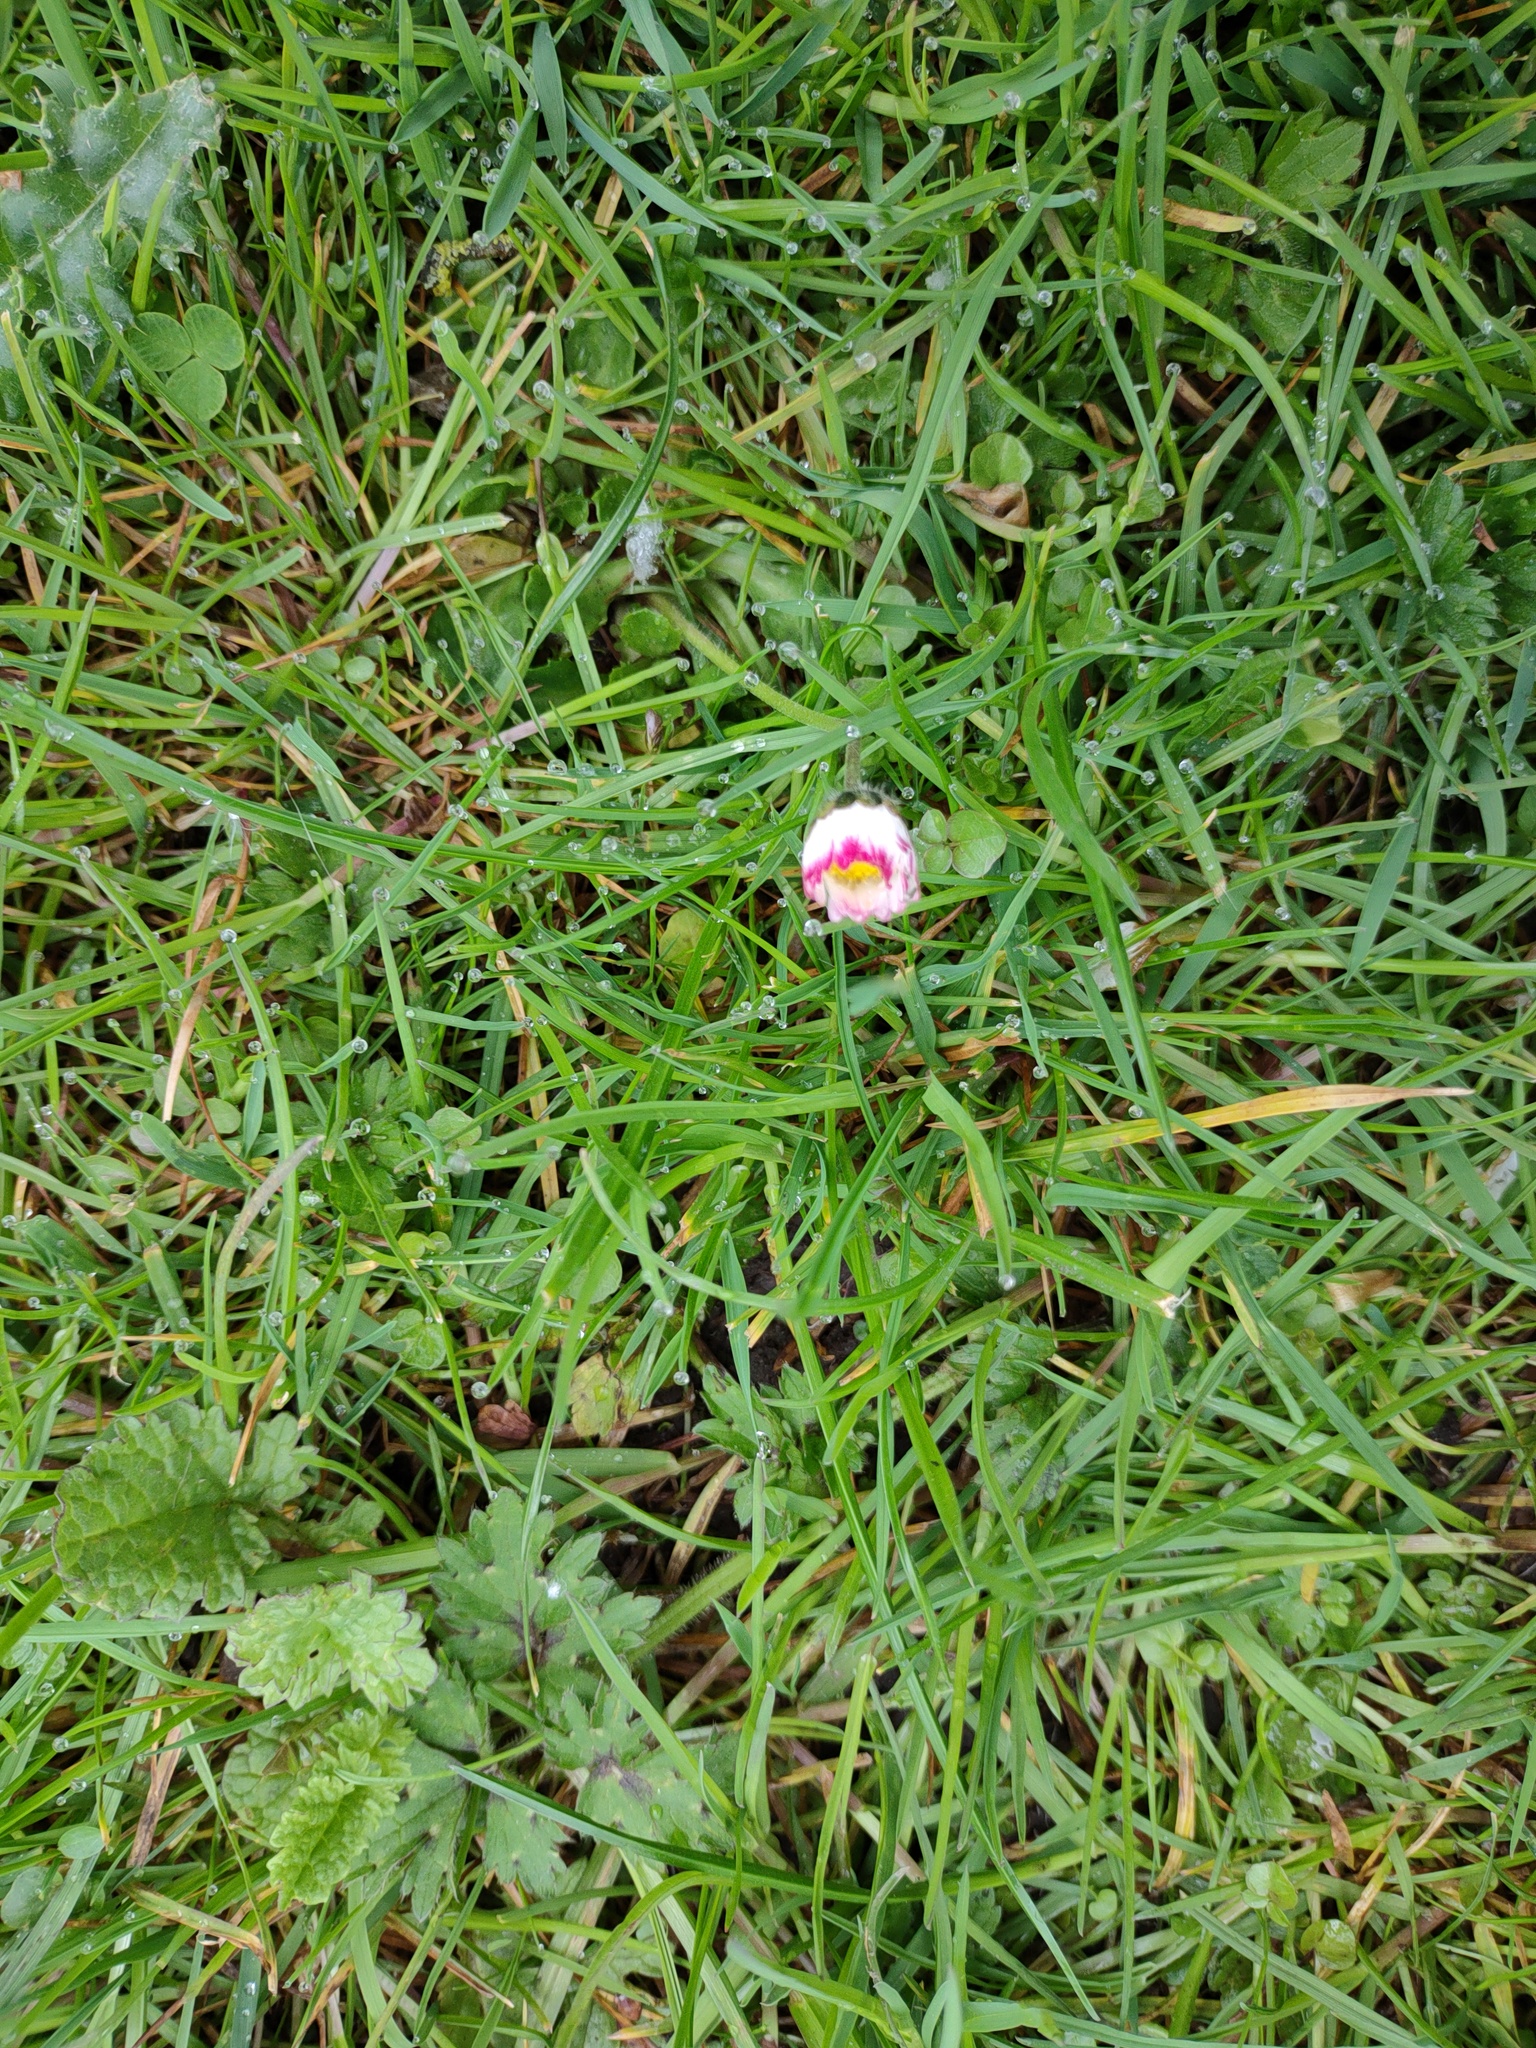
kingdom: Plantae
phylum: Tracheophyta
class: Magnoliopsida
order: Asterales
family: Asteraceae
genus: Bellis
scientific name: Bellis perennis
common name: Lawndaisy
